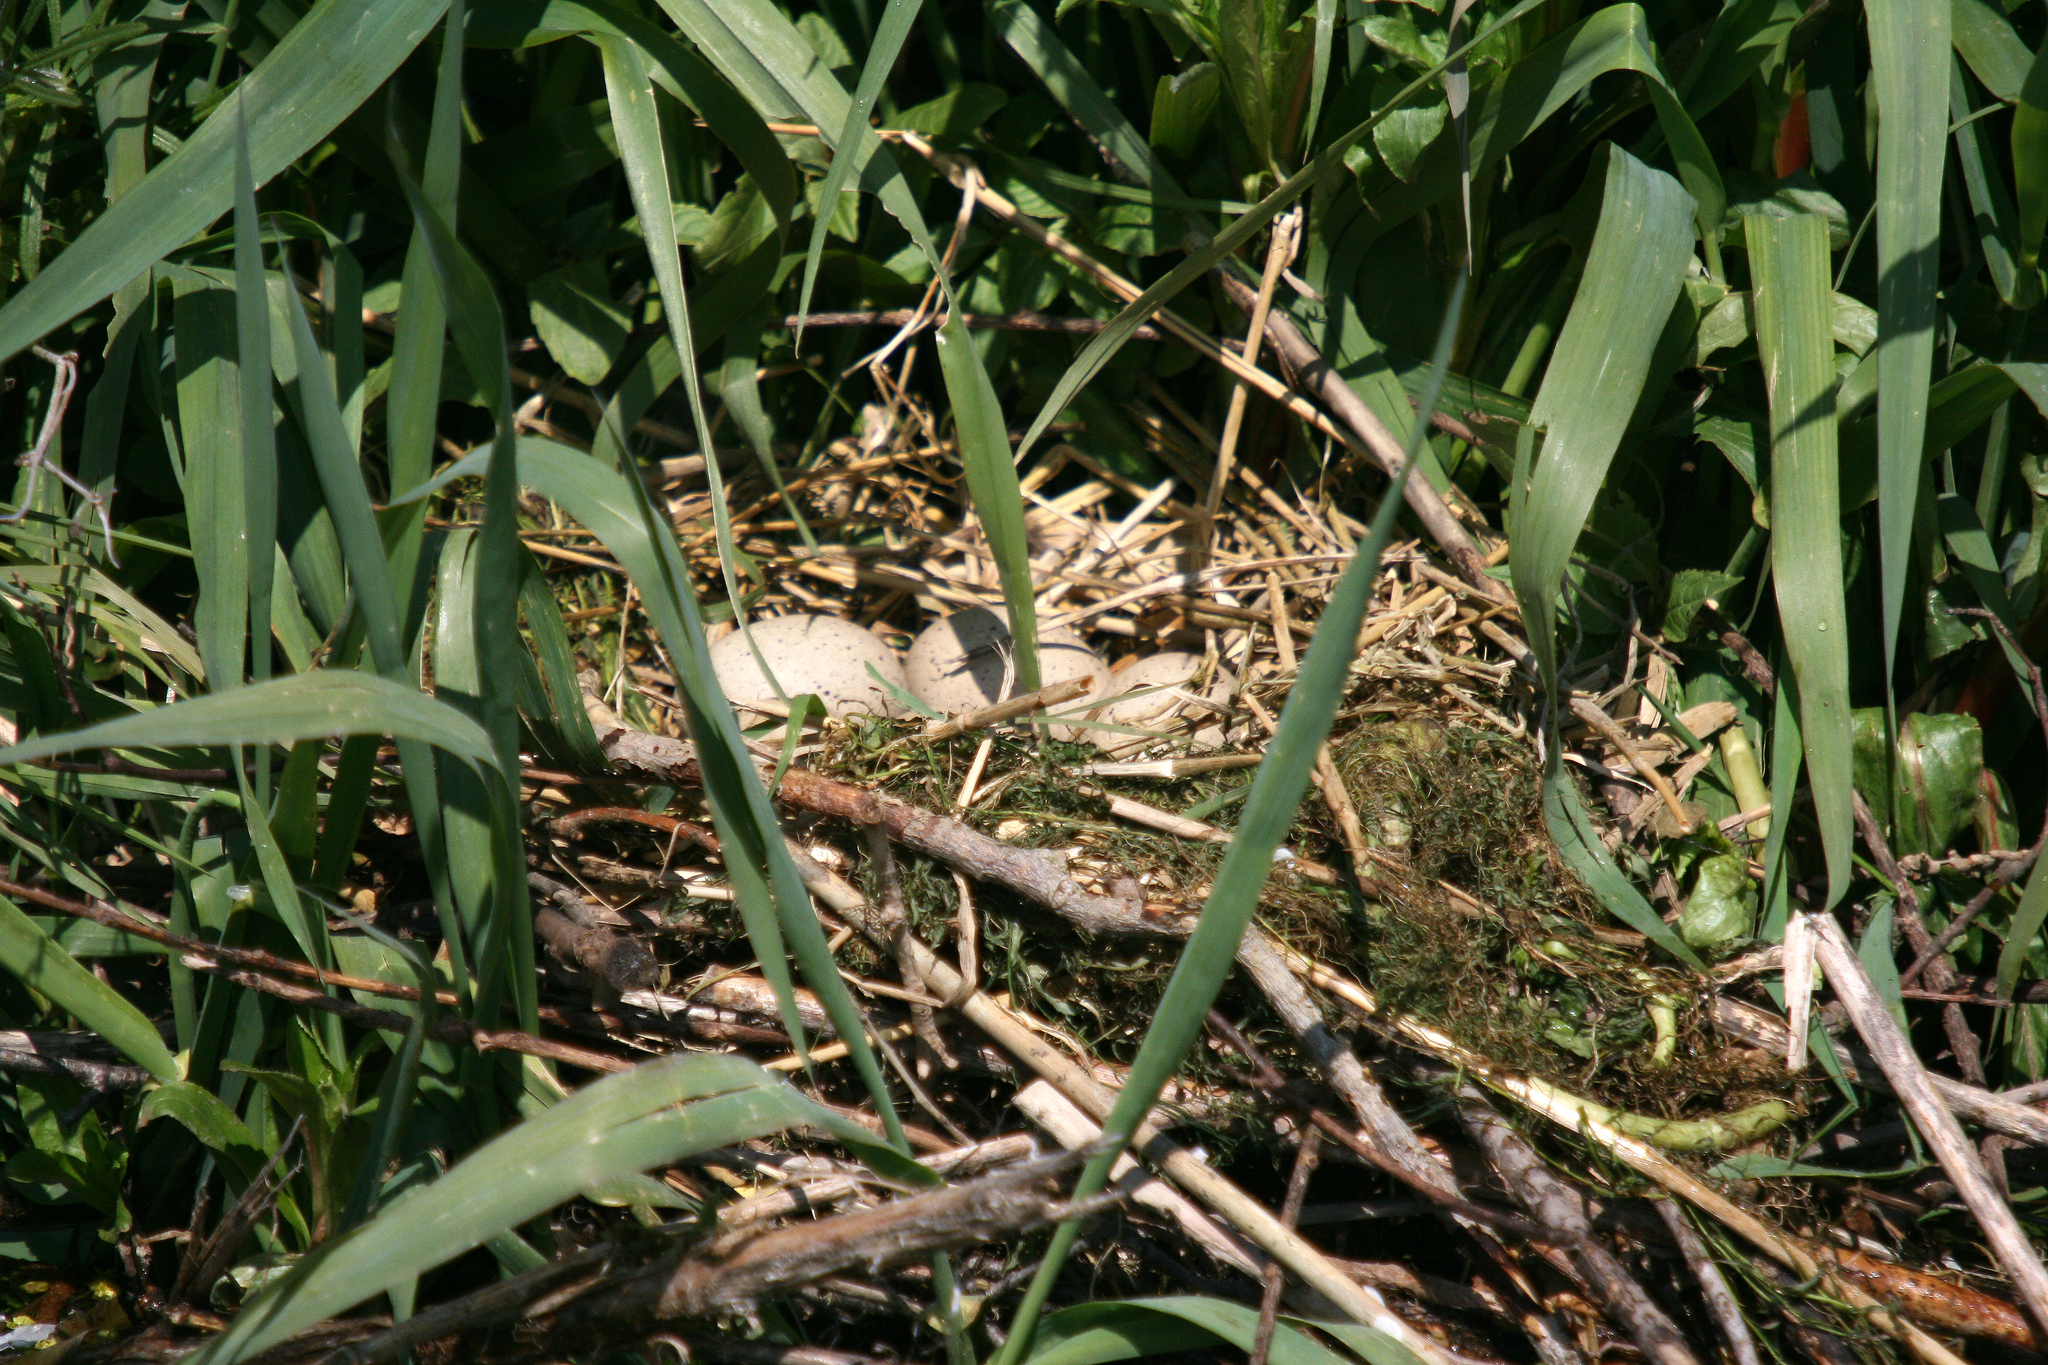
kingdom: Animalia
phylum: Chordata
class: Aves
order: Gruiformes
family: Rallidae
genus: Fulica
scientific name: Fulica atra
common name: Eurasian coot
